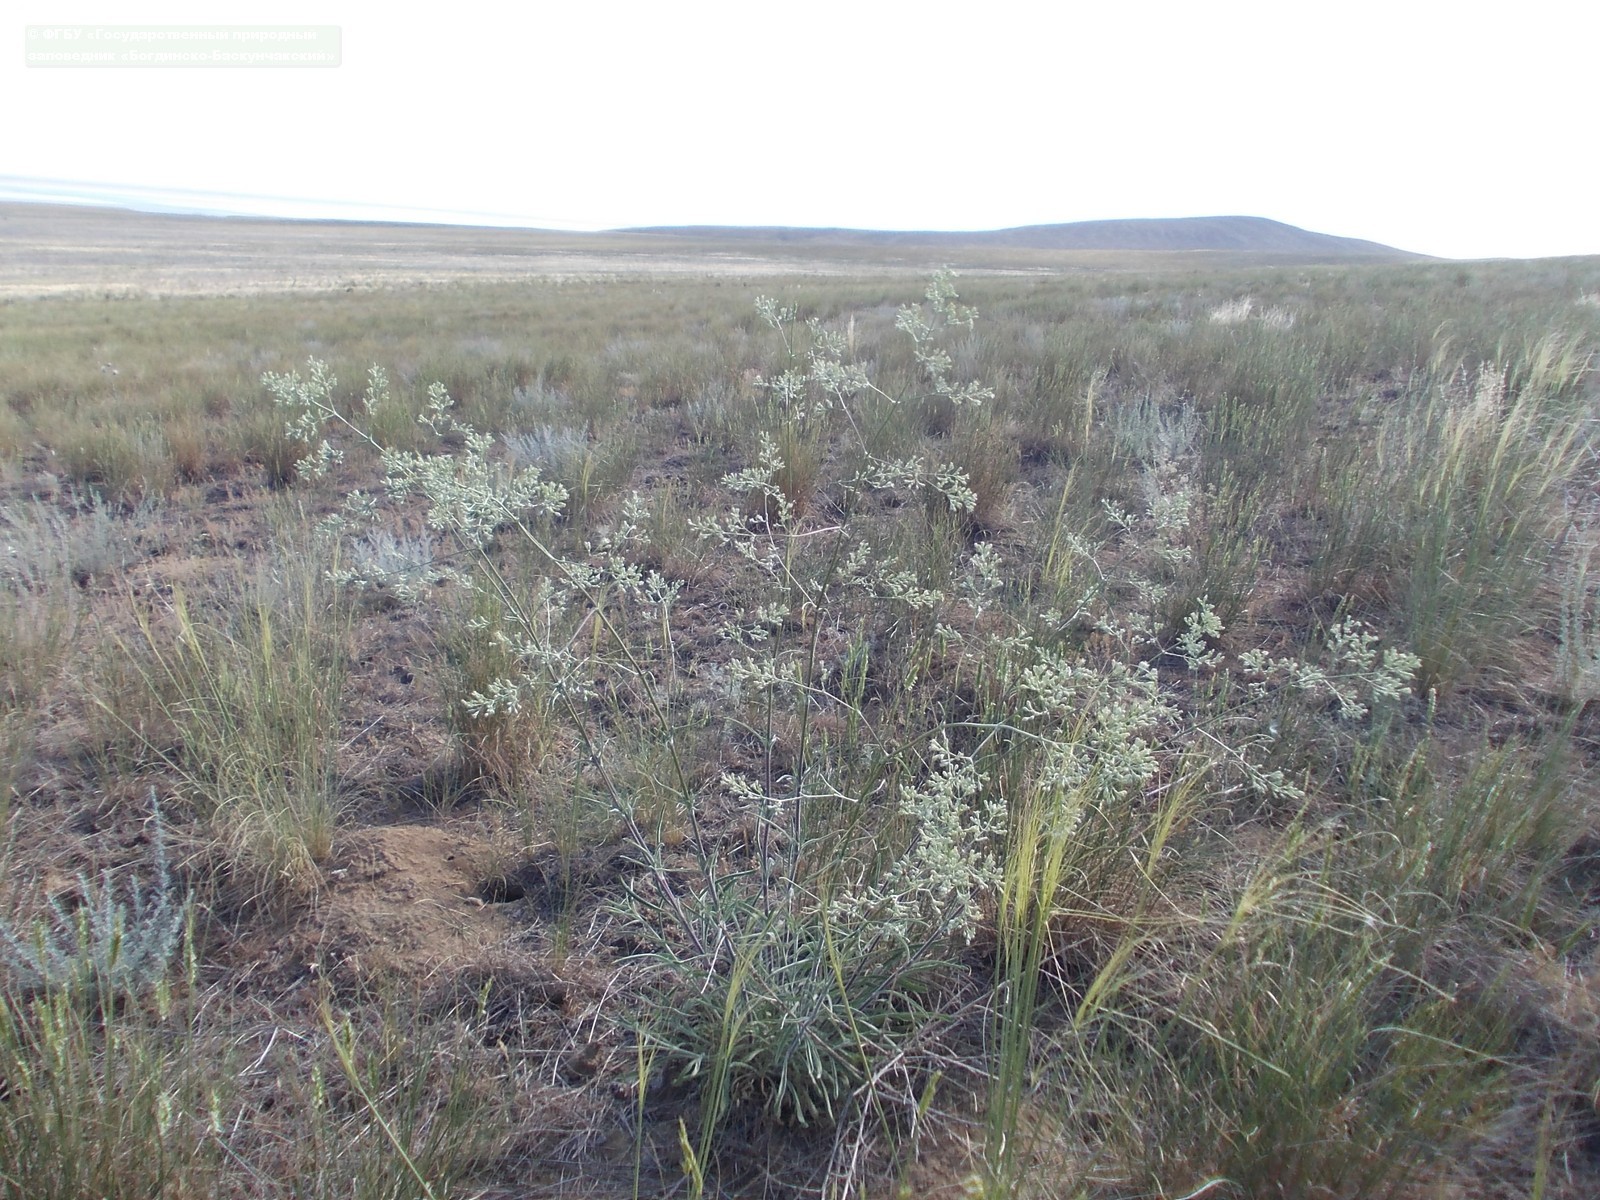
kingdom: Plantae
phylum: Tracheophyta
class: Magnoliopsida
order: Caryophyllales
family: Caryophyllaceae
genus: Silene
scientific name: Silene wolgensis
